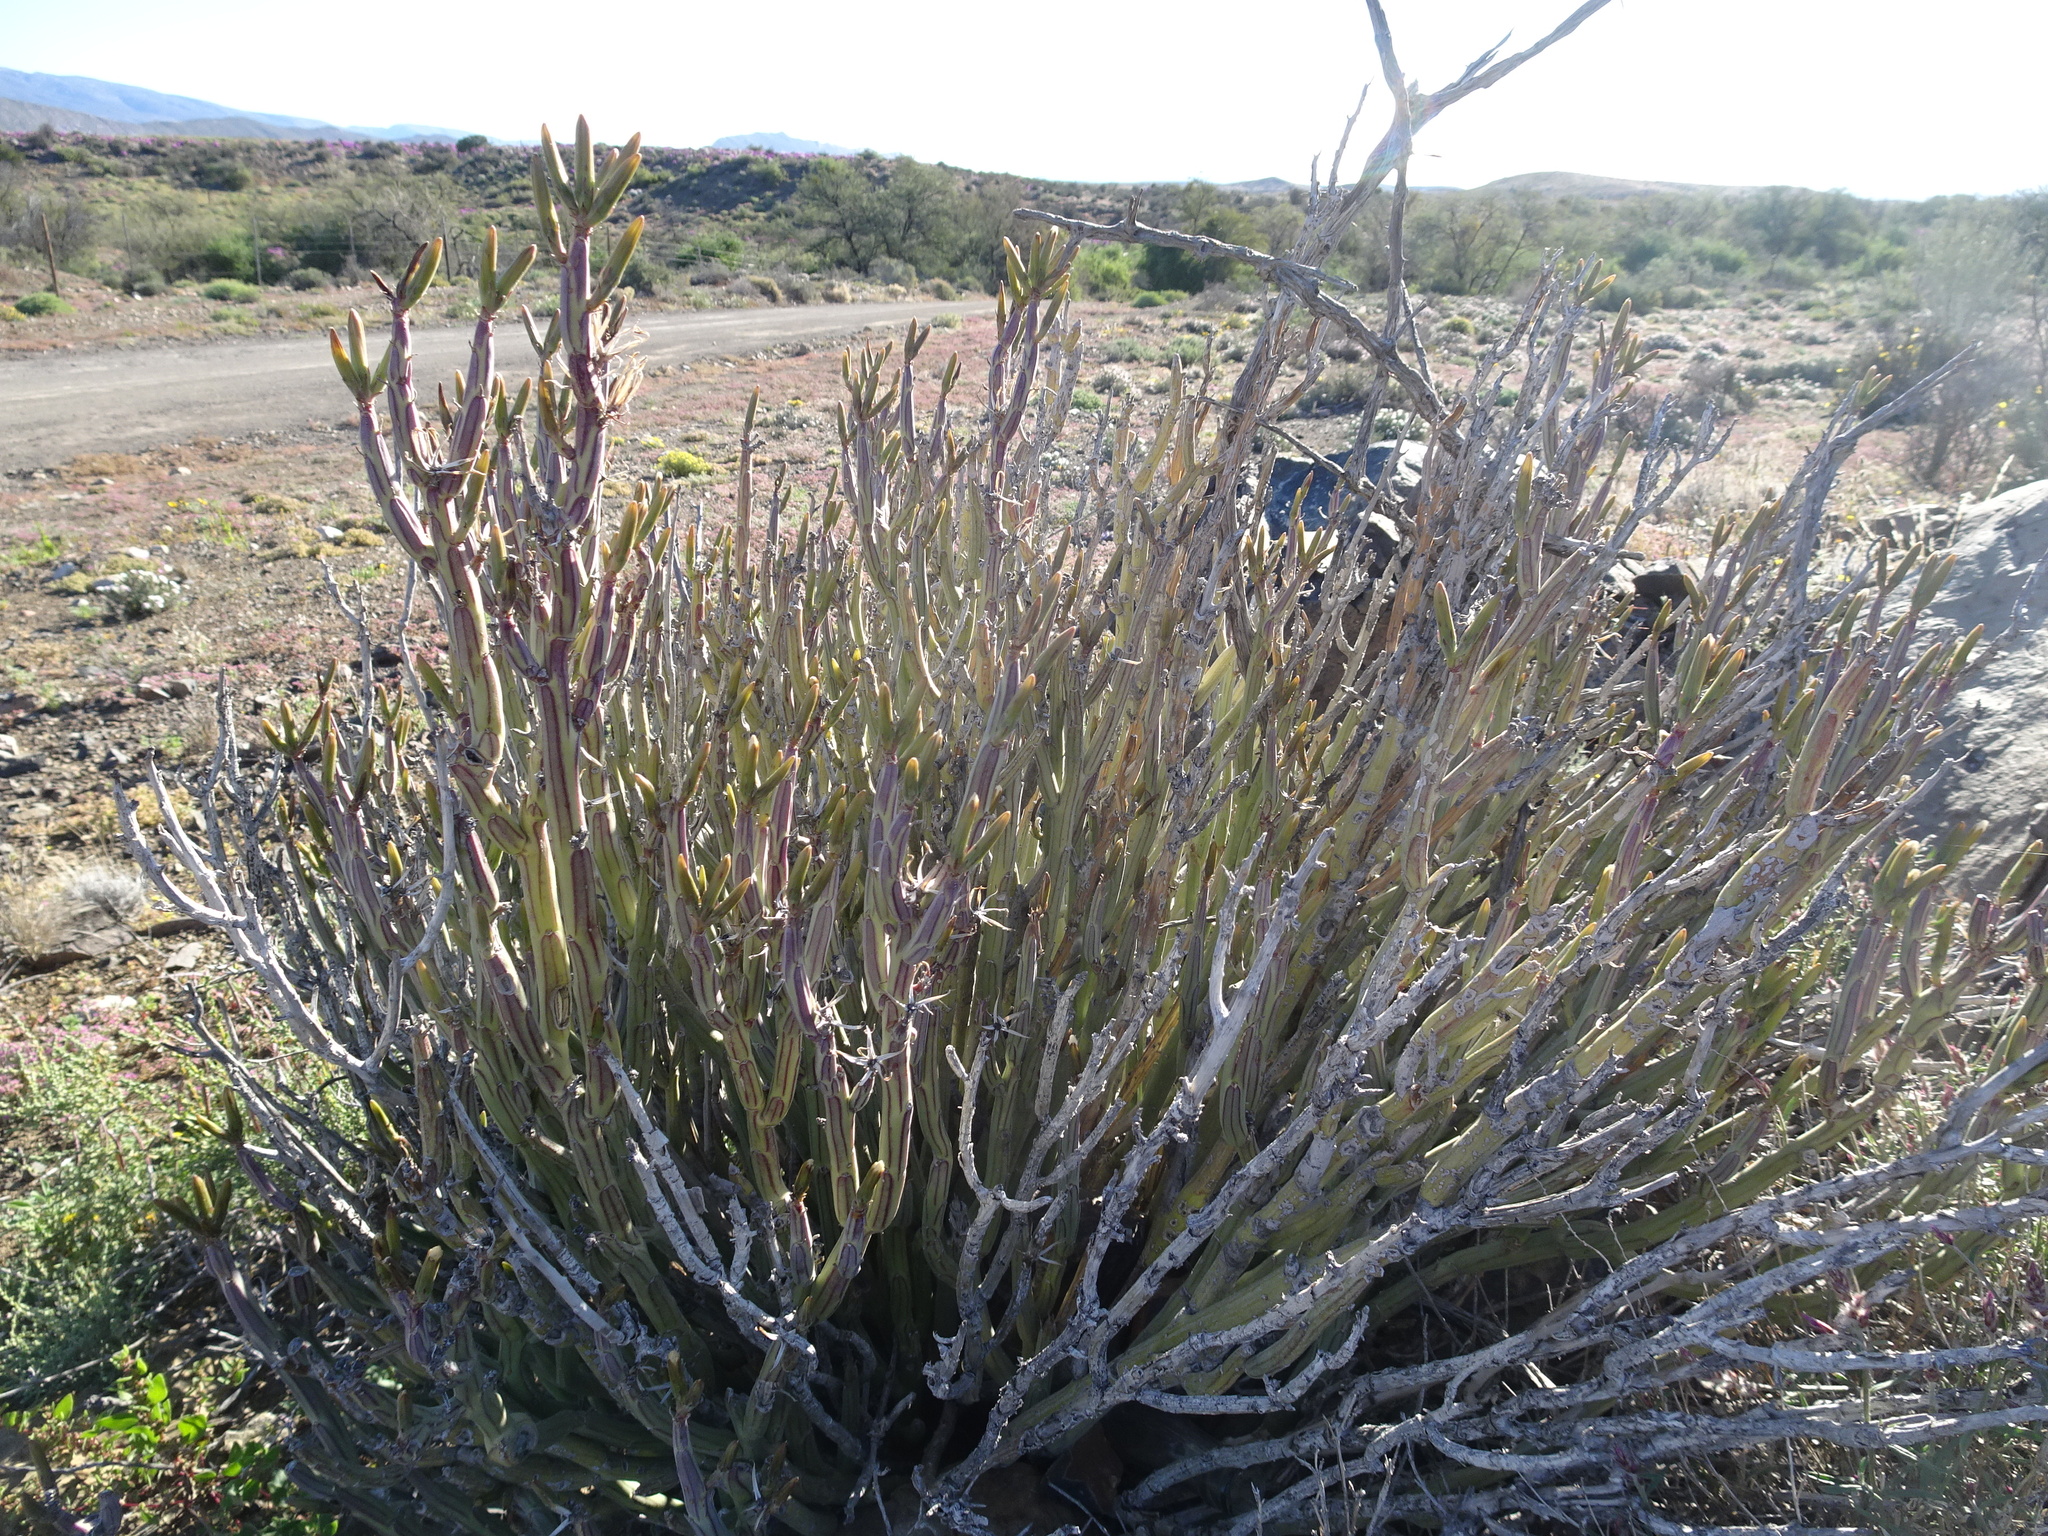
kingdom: Plantae
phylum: Tracheophyta
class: Magnoliopsida
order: Asterales
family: Asteraceae
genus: Curio
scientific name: Curio avasimontanus
